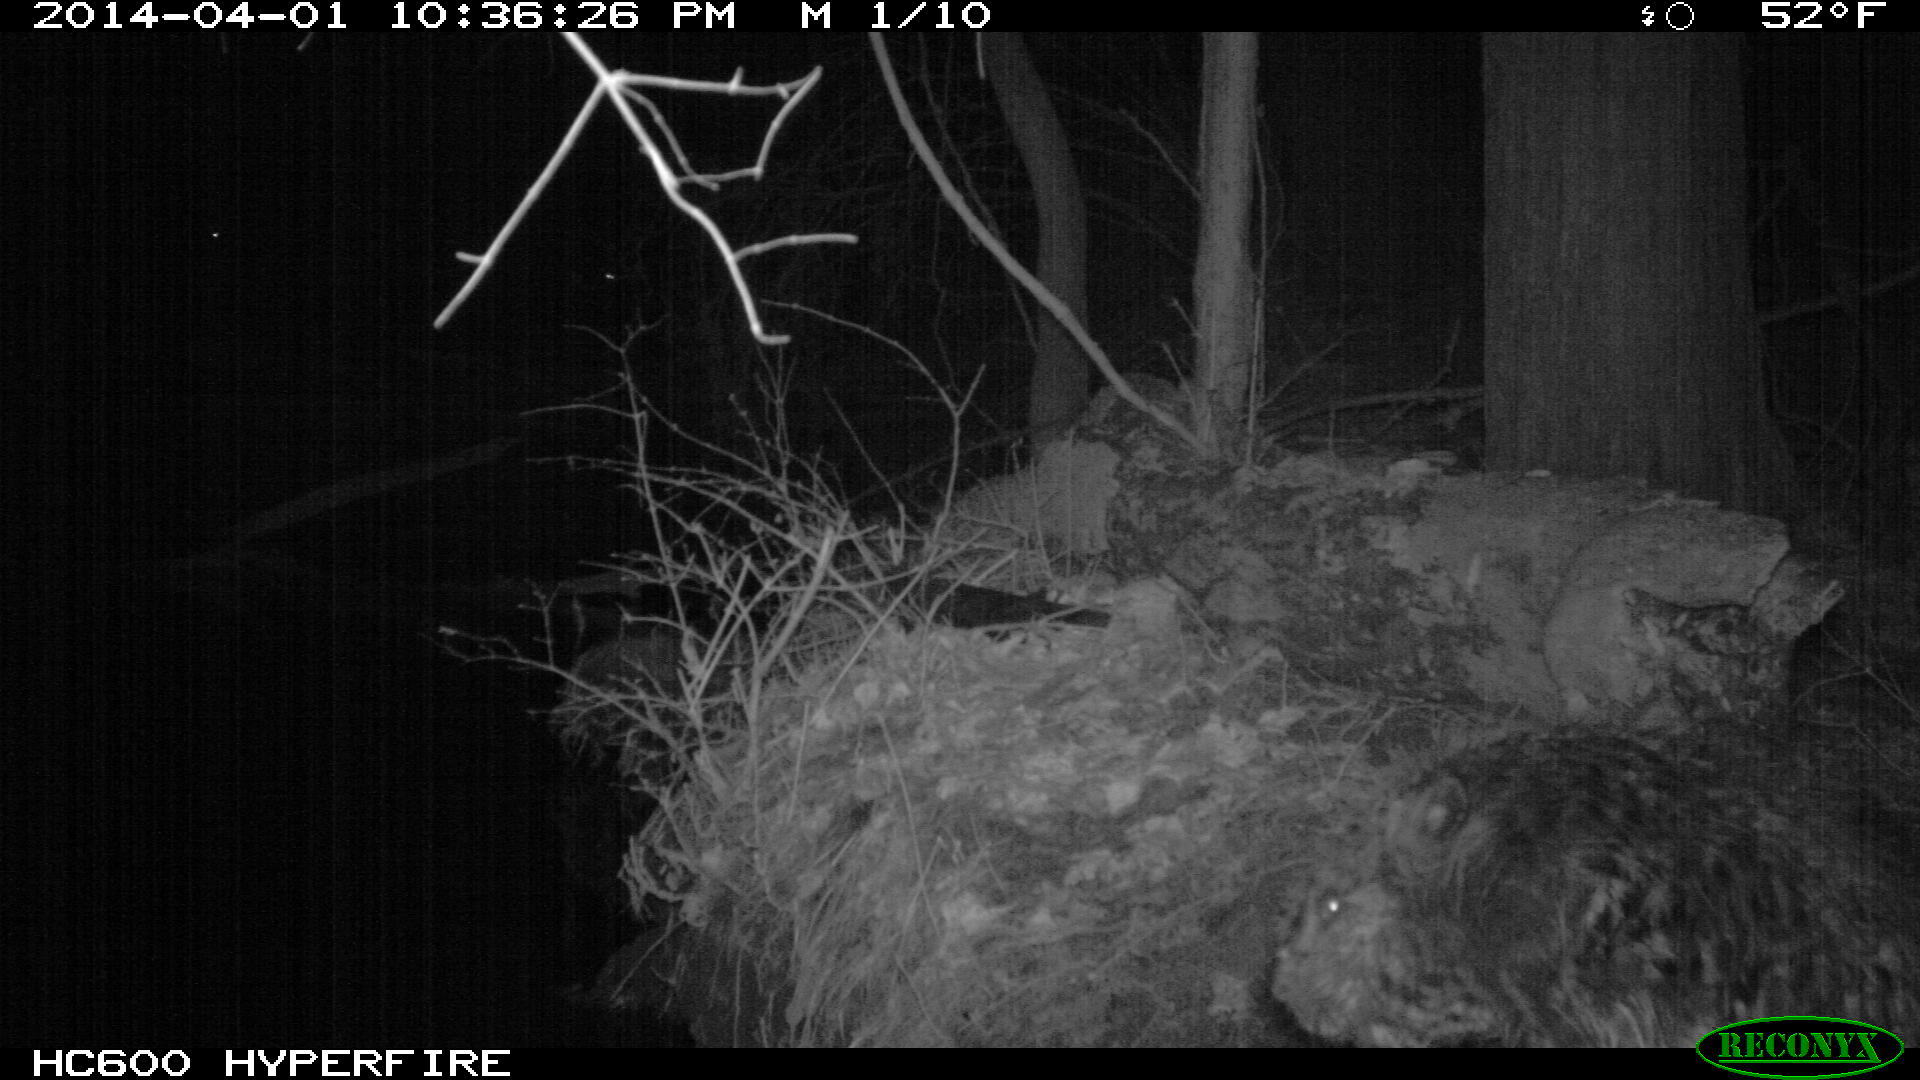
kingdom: Animalia
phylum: Chordata
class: Mammalia
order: Rodentia
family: Castoridae
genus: Castor
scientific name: Castor canadensis
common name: American beaver
